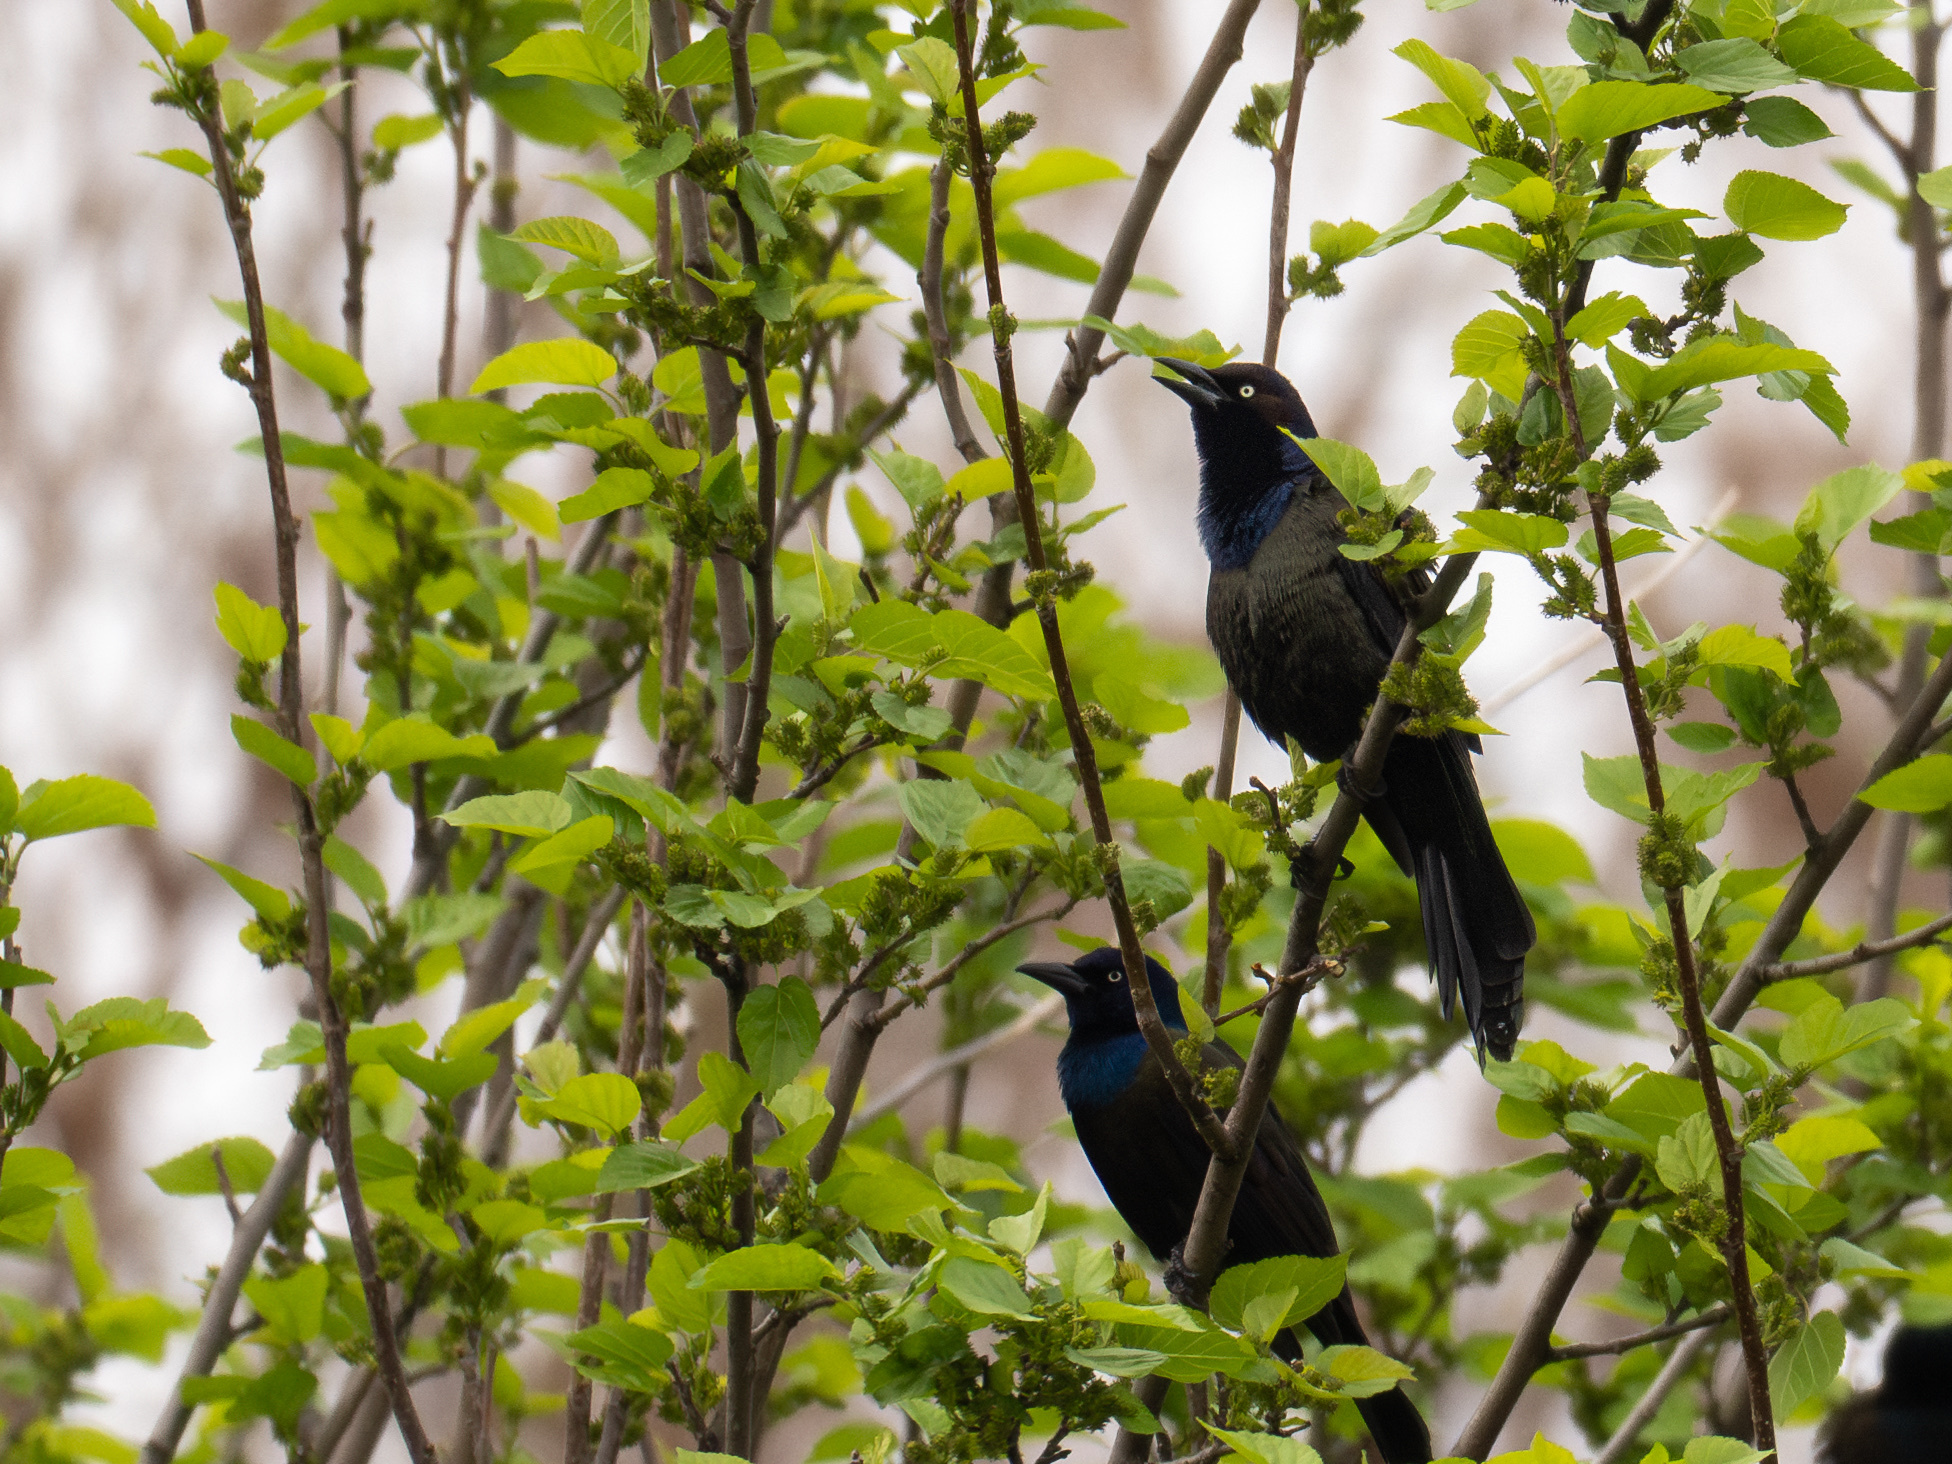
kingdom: Animalia
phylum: Chordata
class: Aves
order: Passeriformes
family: Icteridae
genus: Quiscalus
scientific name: Quiscalus quiscula
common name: Common grackle
